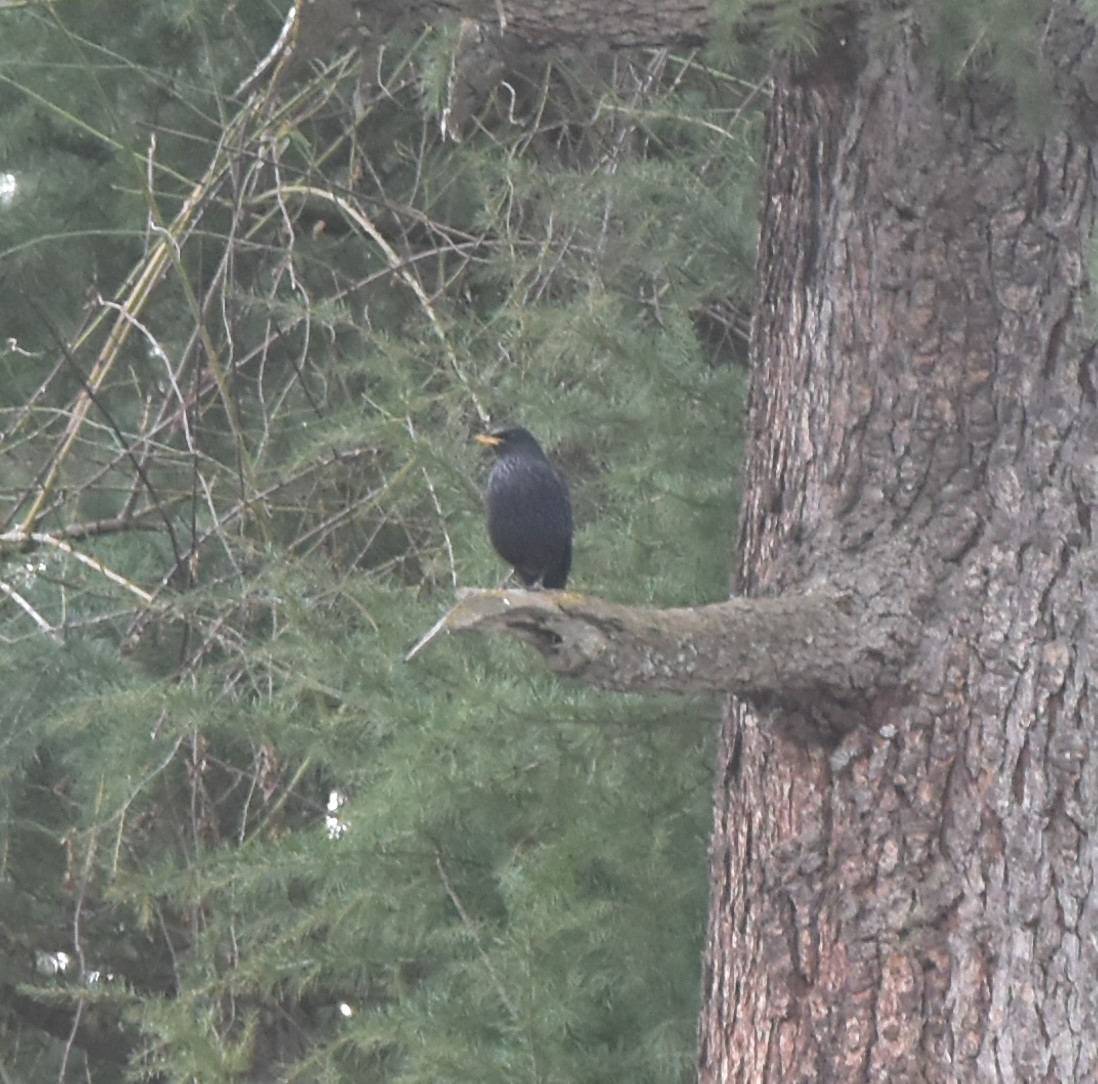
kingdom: Animalia
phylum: Chordata
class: Aves
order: Passeriformes
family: Muscicapidae
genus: Myophonus
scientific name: Myophonus caeruleus
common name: Blue whistling-thrush
